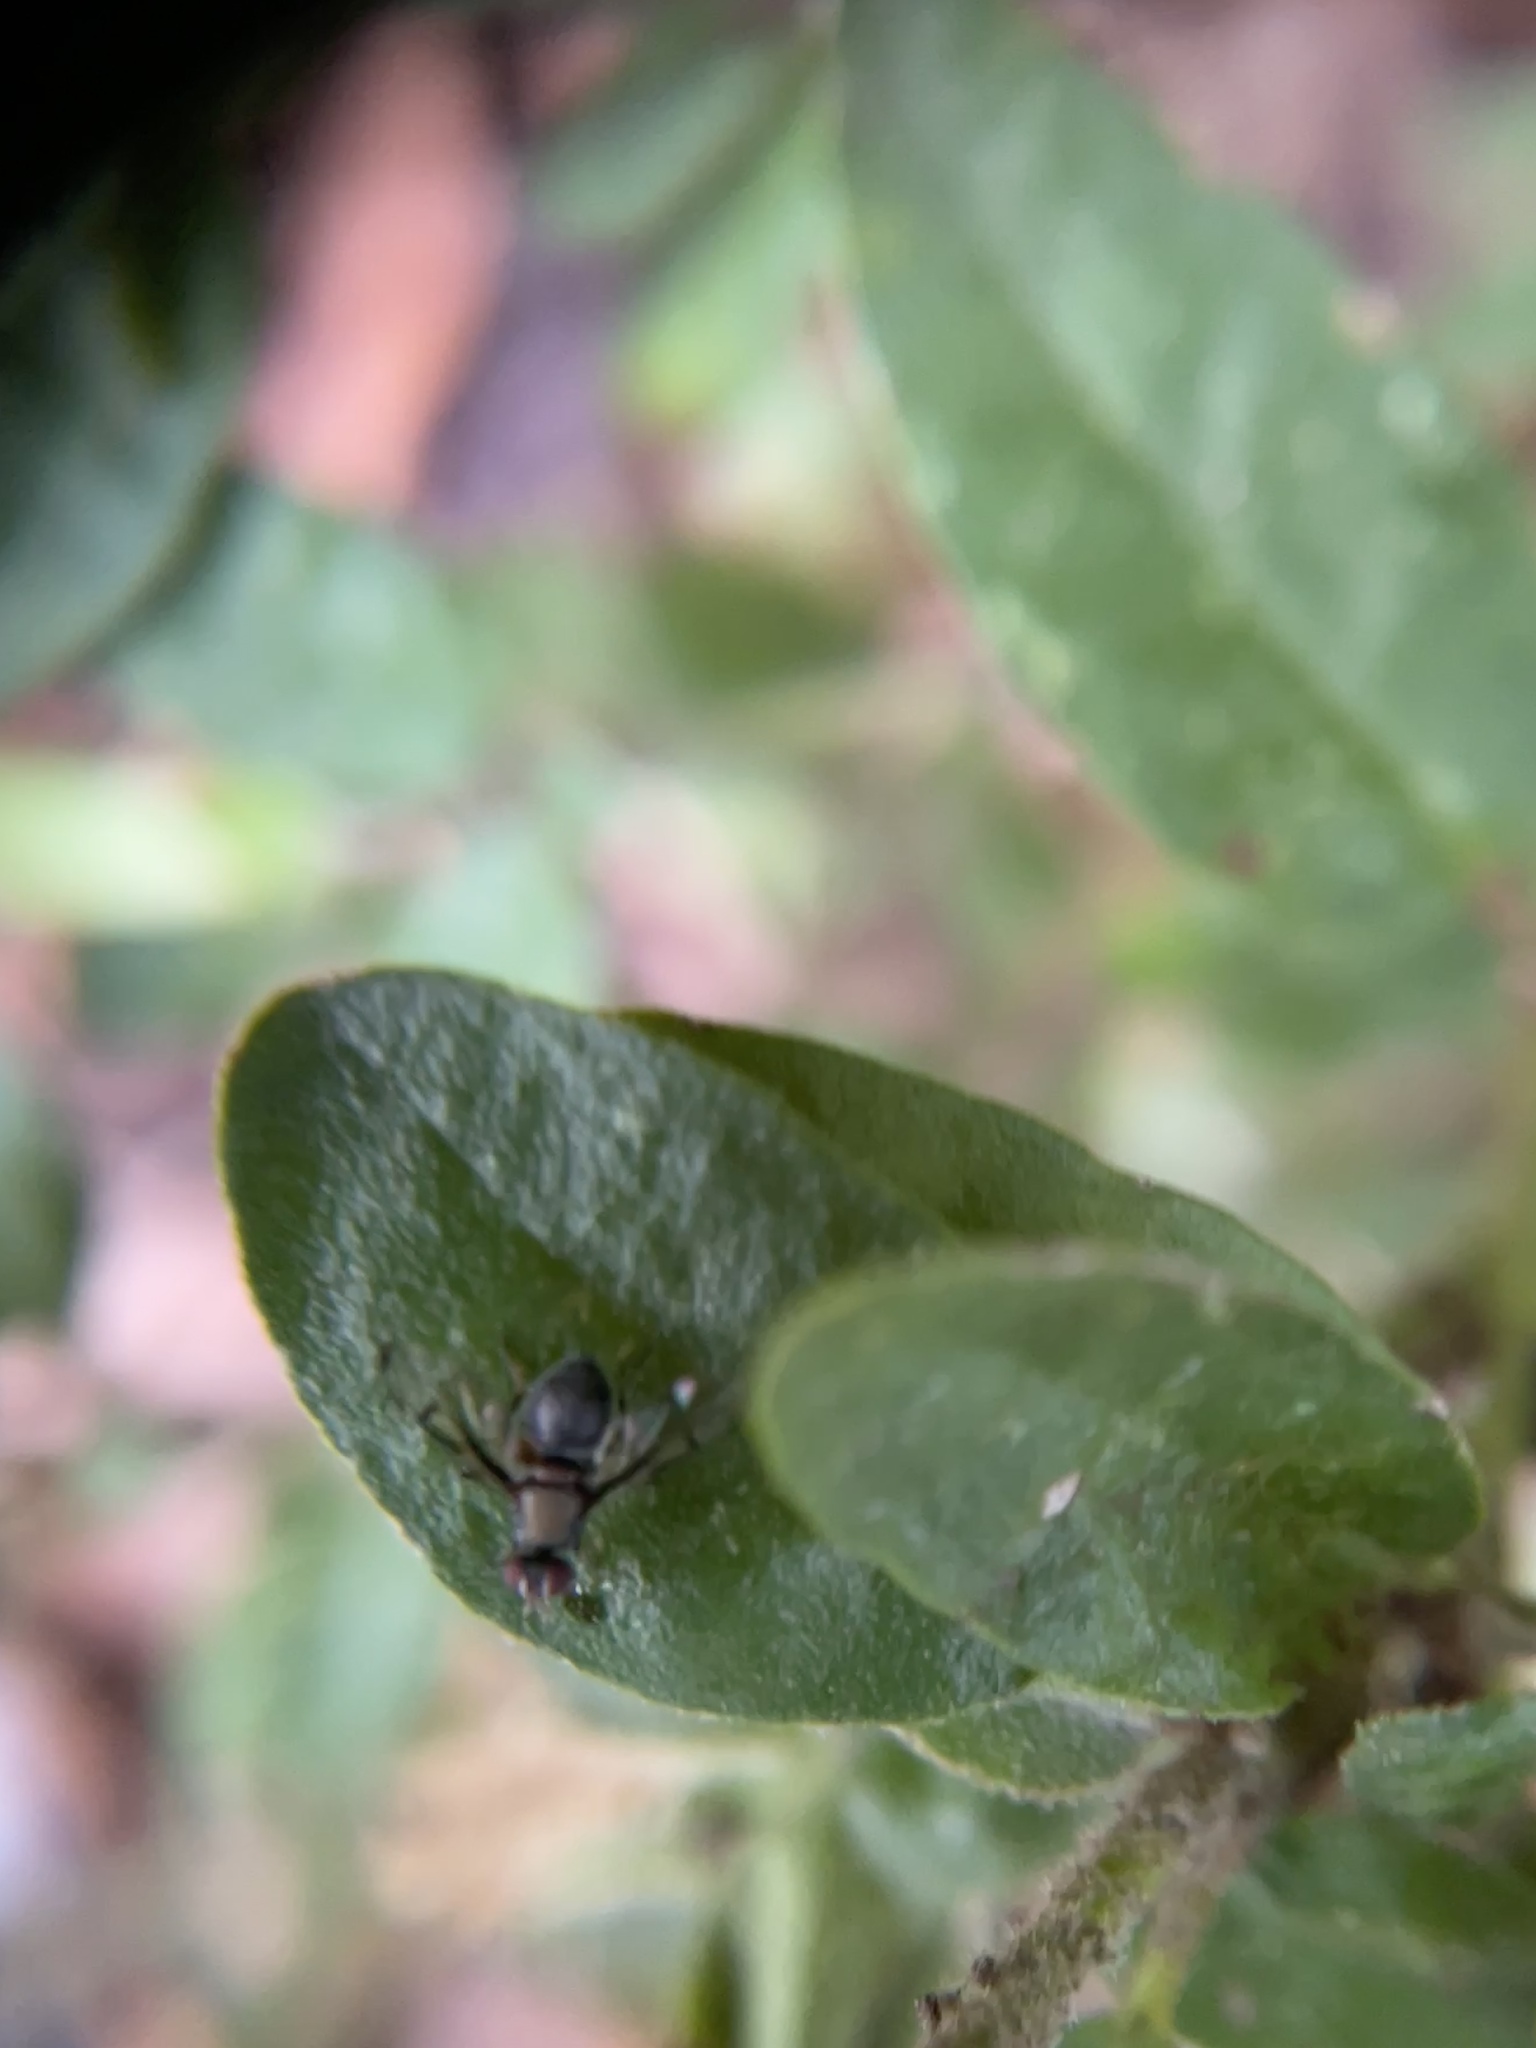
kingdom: Animalia
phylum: Arthropoda
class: Insecta
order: Diptera
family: Platystomatidae
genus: Pogonortalis
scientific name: Pogonortalis doclea
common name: Boatman fly
